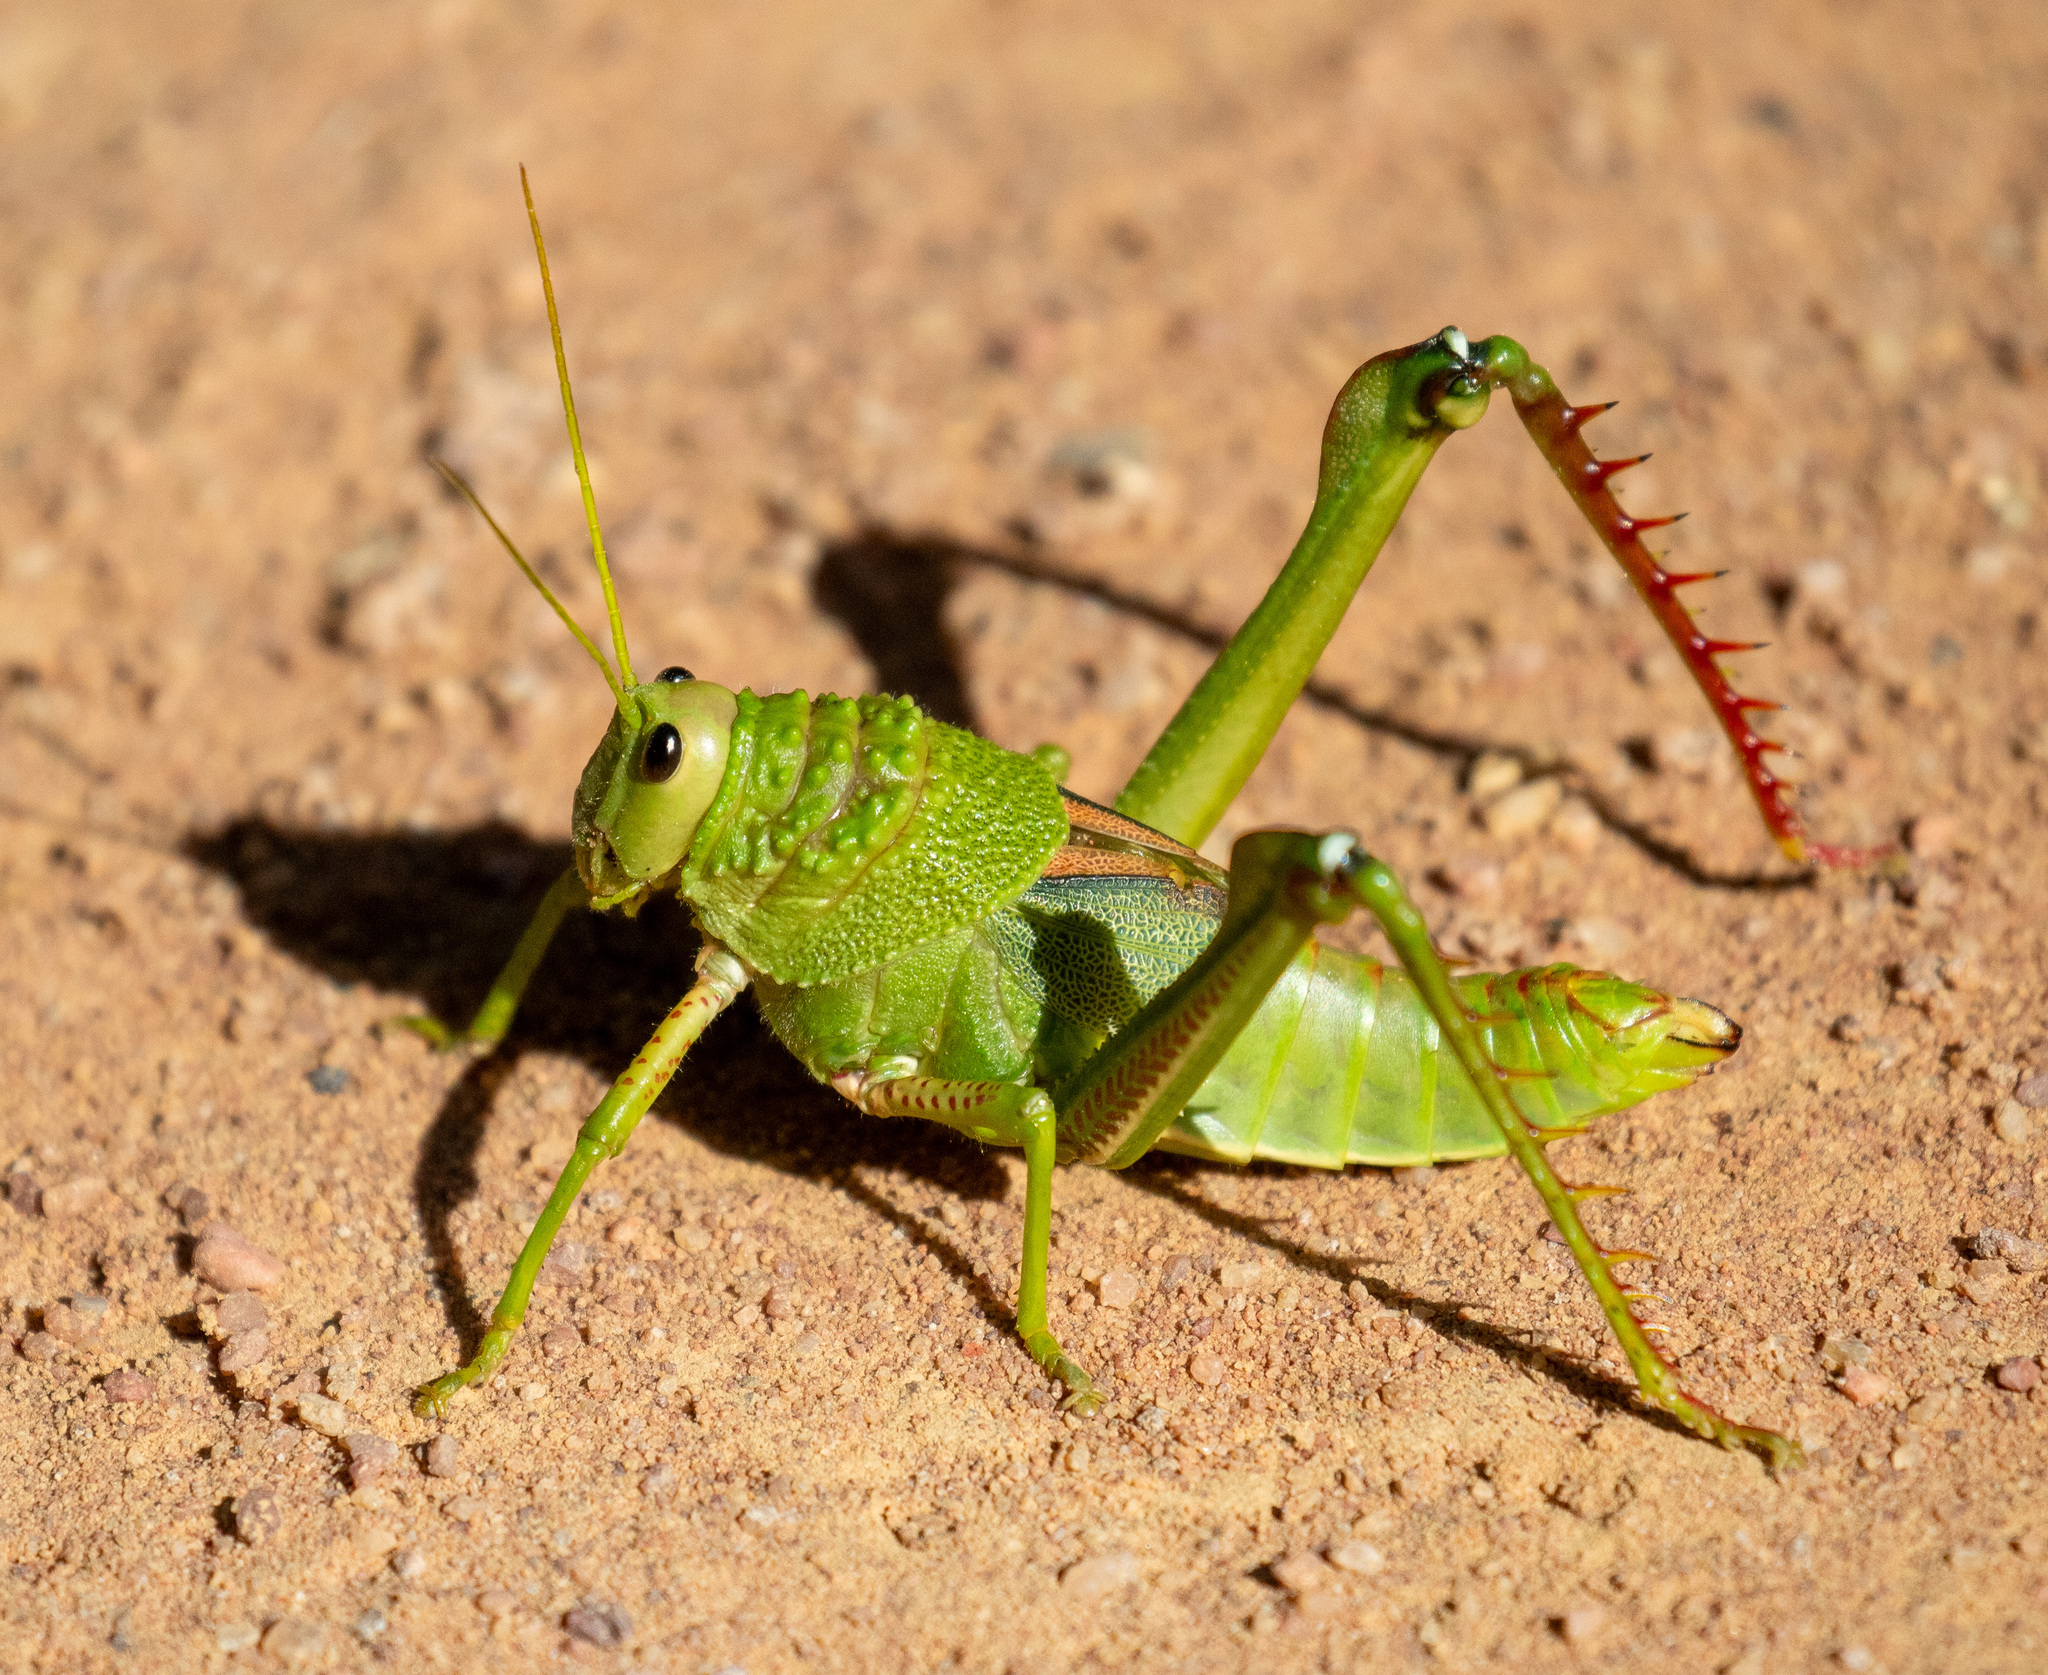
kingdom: Animalia
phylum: Arthropoda
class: Insecta
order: Orthoptera
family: Romaleidae
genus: Brasilacris
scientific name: Brasilacris gigas
